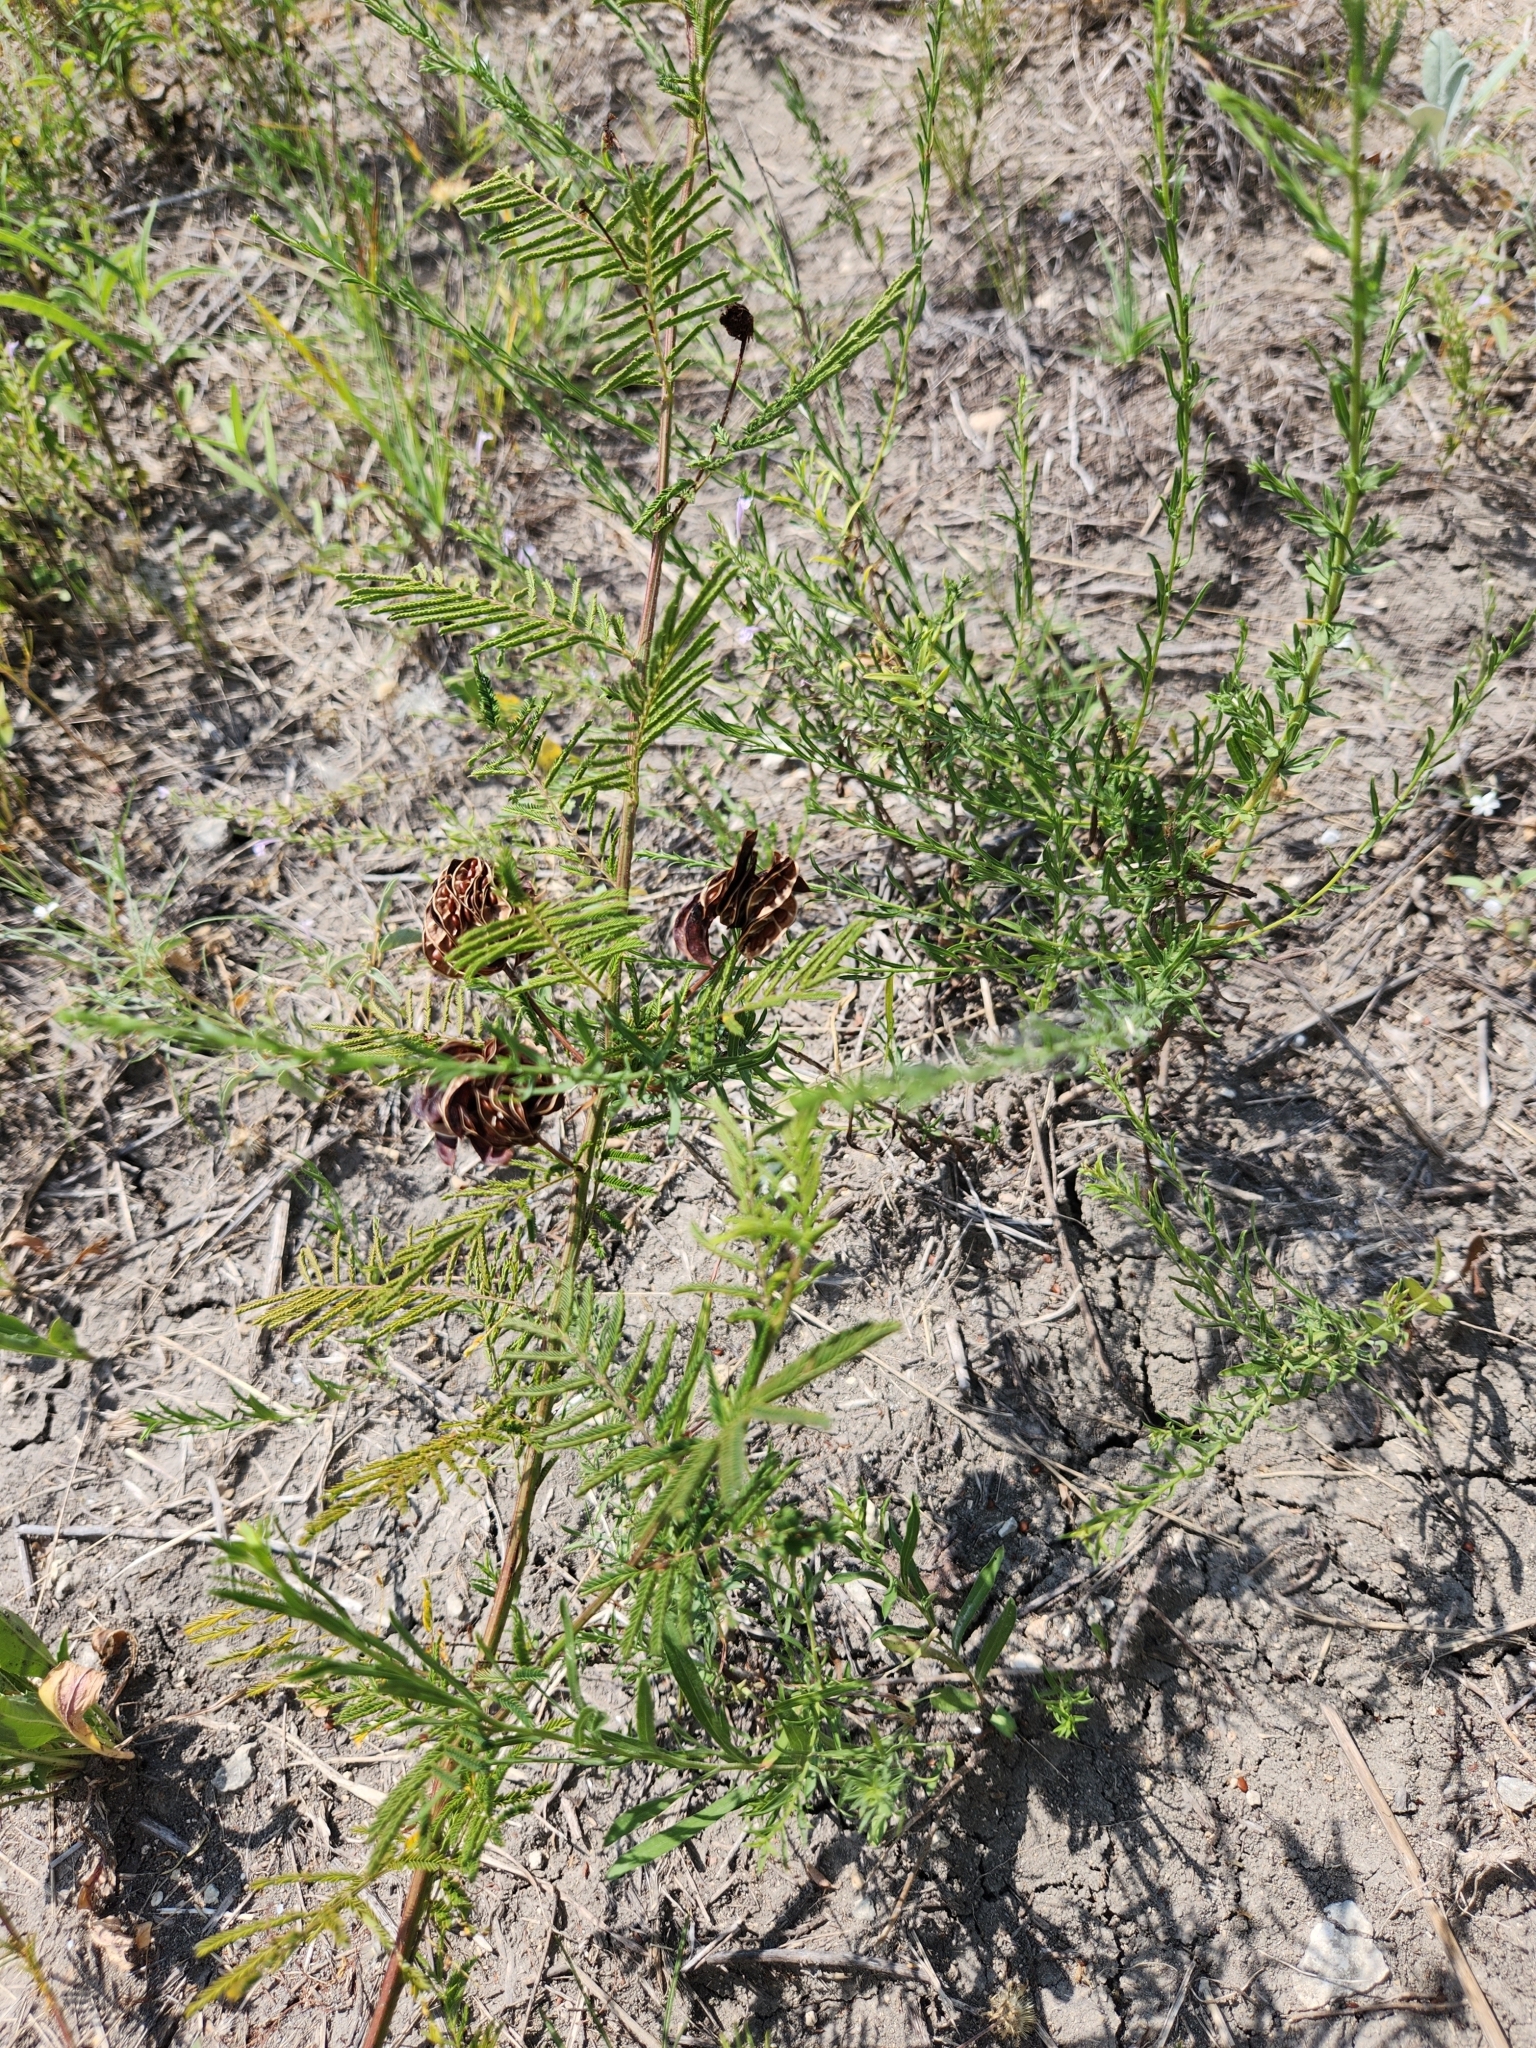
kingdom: Plantae
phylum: Tracheophyta
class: Magnoliopsida
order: Fabales
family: Fabaceae
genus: Desmanthus
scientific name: Desmanthus illinoensis
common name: Illinois bundle-flower
